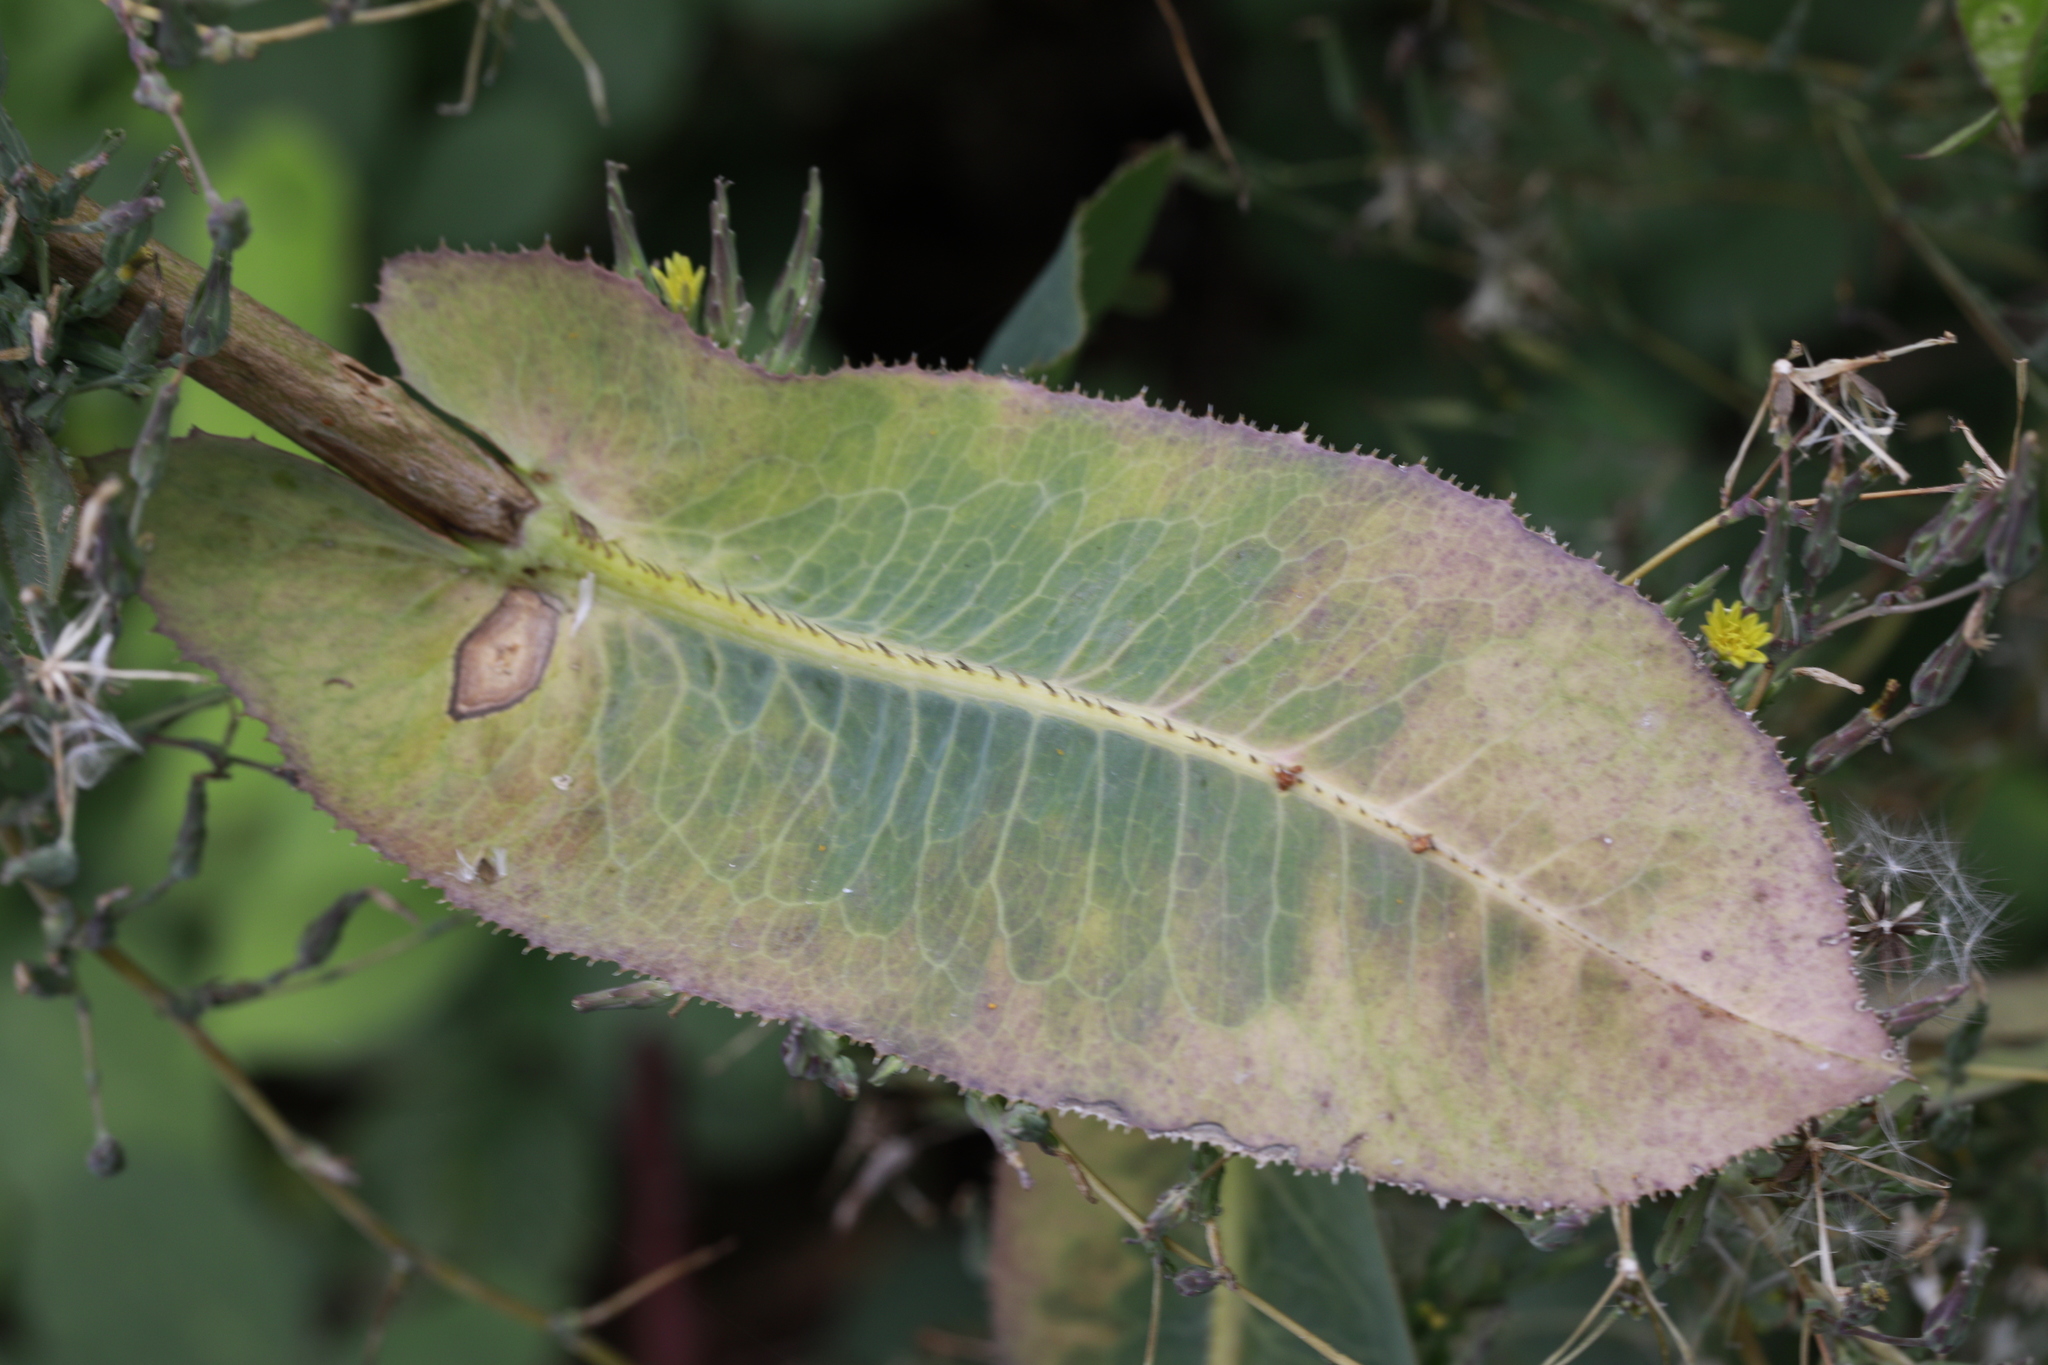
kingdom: Plantae
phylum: Tracheophyta
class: Magnoliopsida
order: Asterales
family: Asteraceae
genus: Lactuca
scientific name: Lactuca serriola
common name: Prickly lettuce
